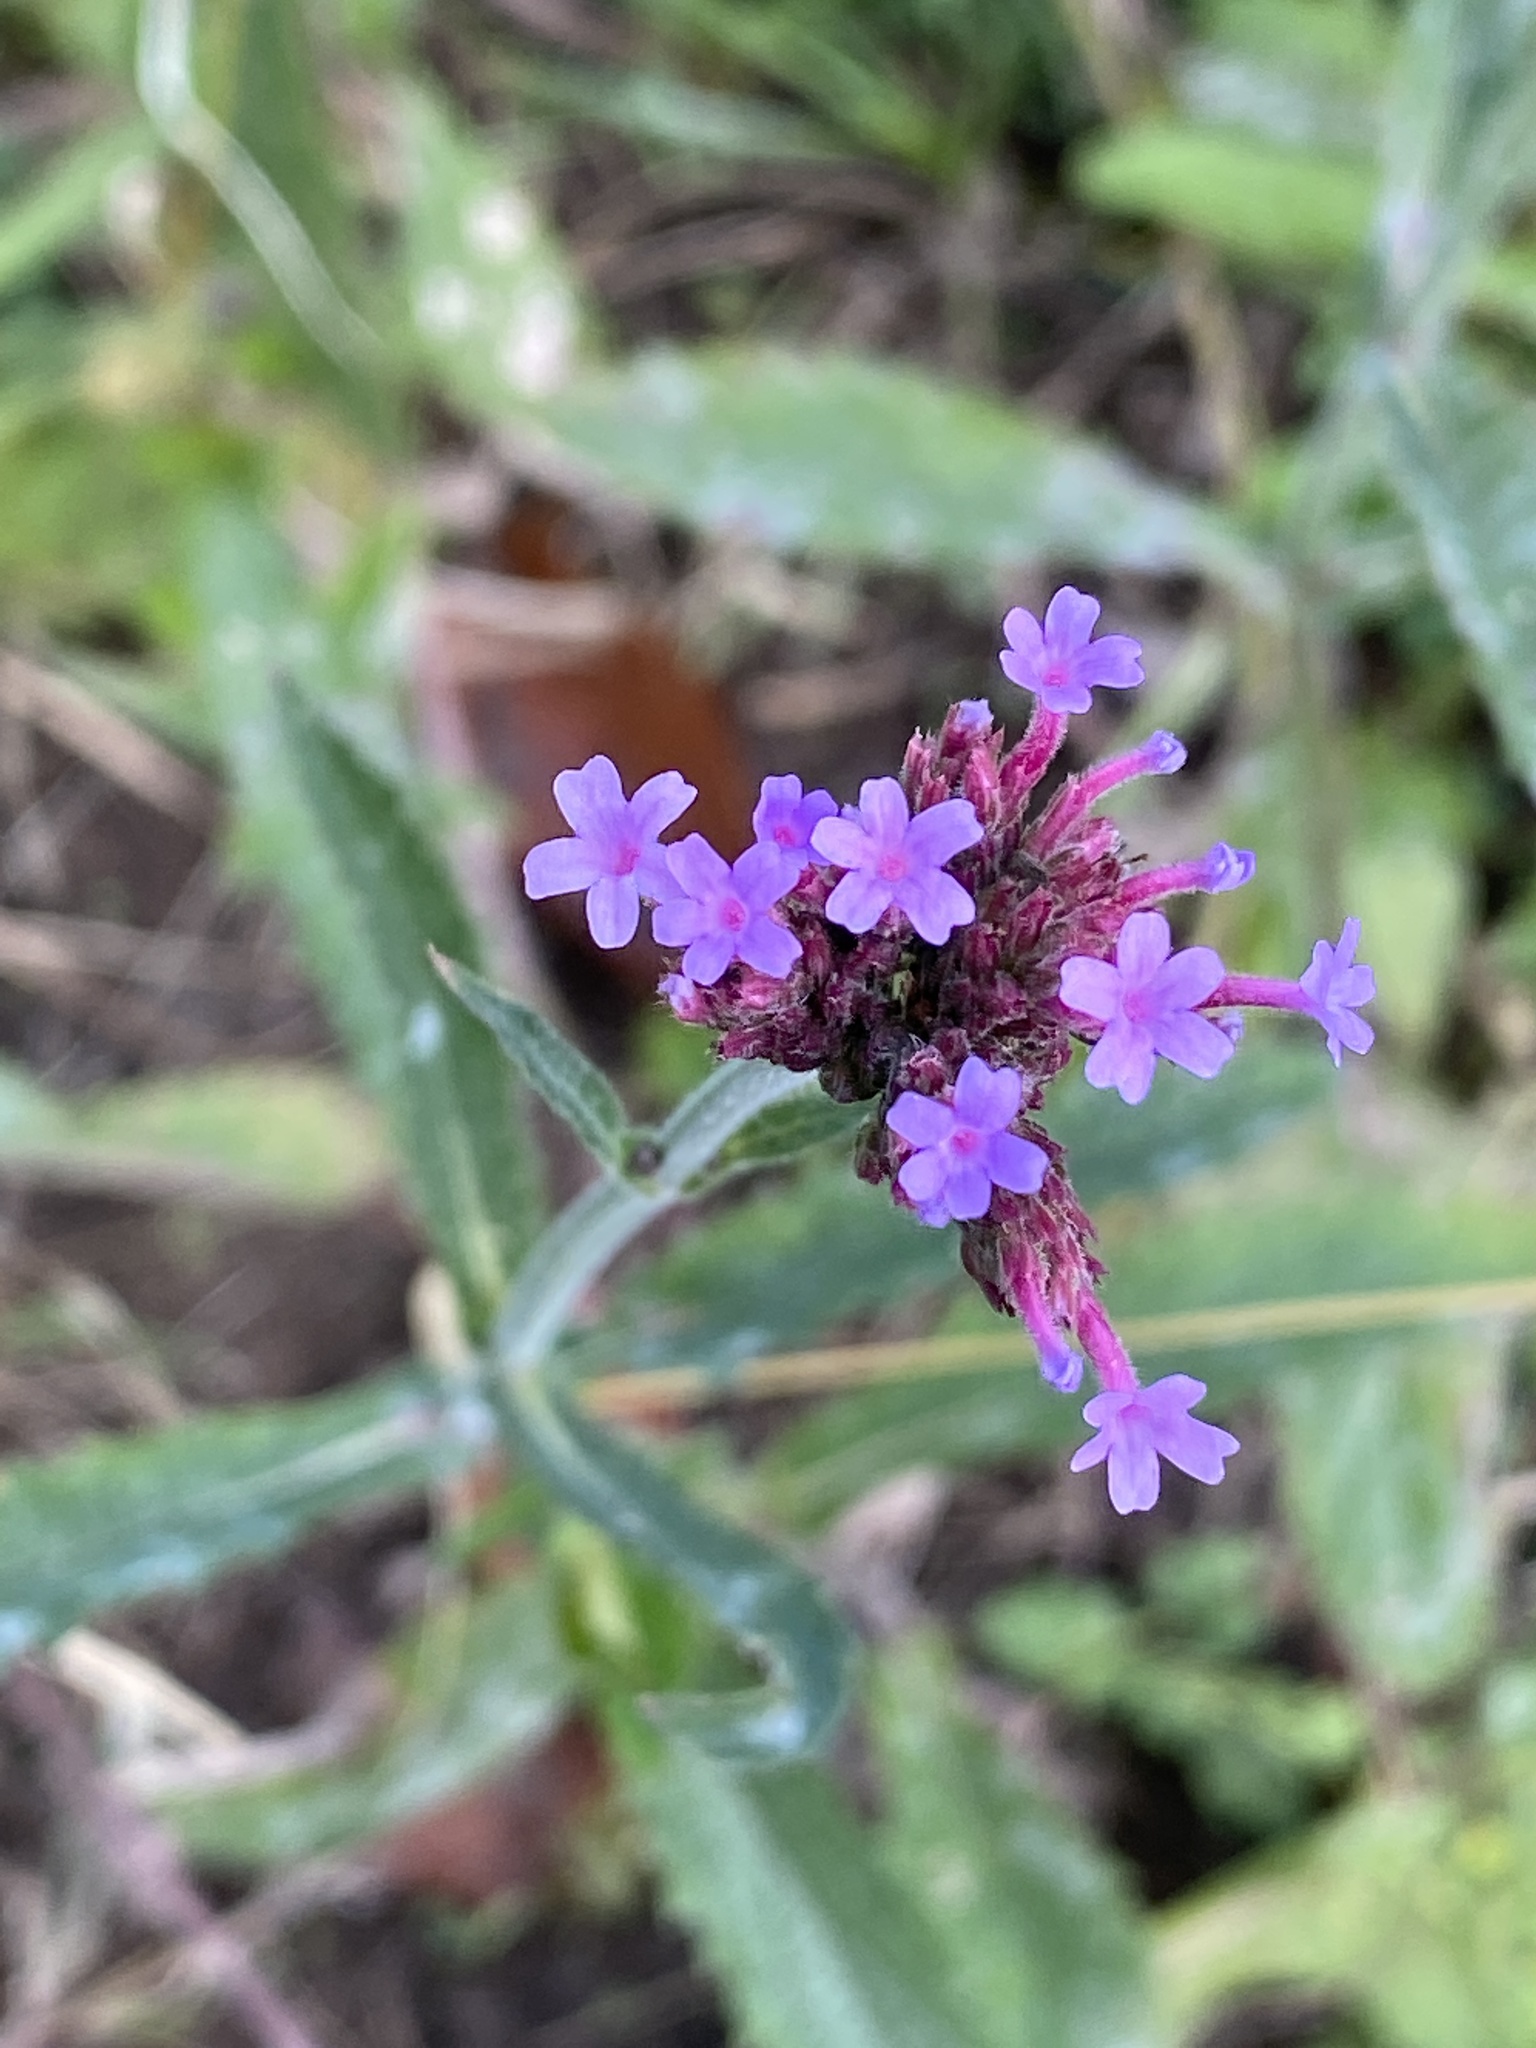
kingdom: Plantae
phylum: Tracheophyta
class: Magnoliopsida
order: Lamiales
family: Verbenaceae
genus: Verbena
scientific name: Verbena bonariensis
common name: Purpletop vervain
